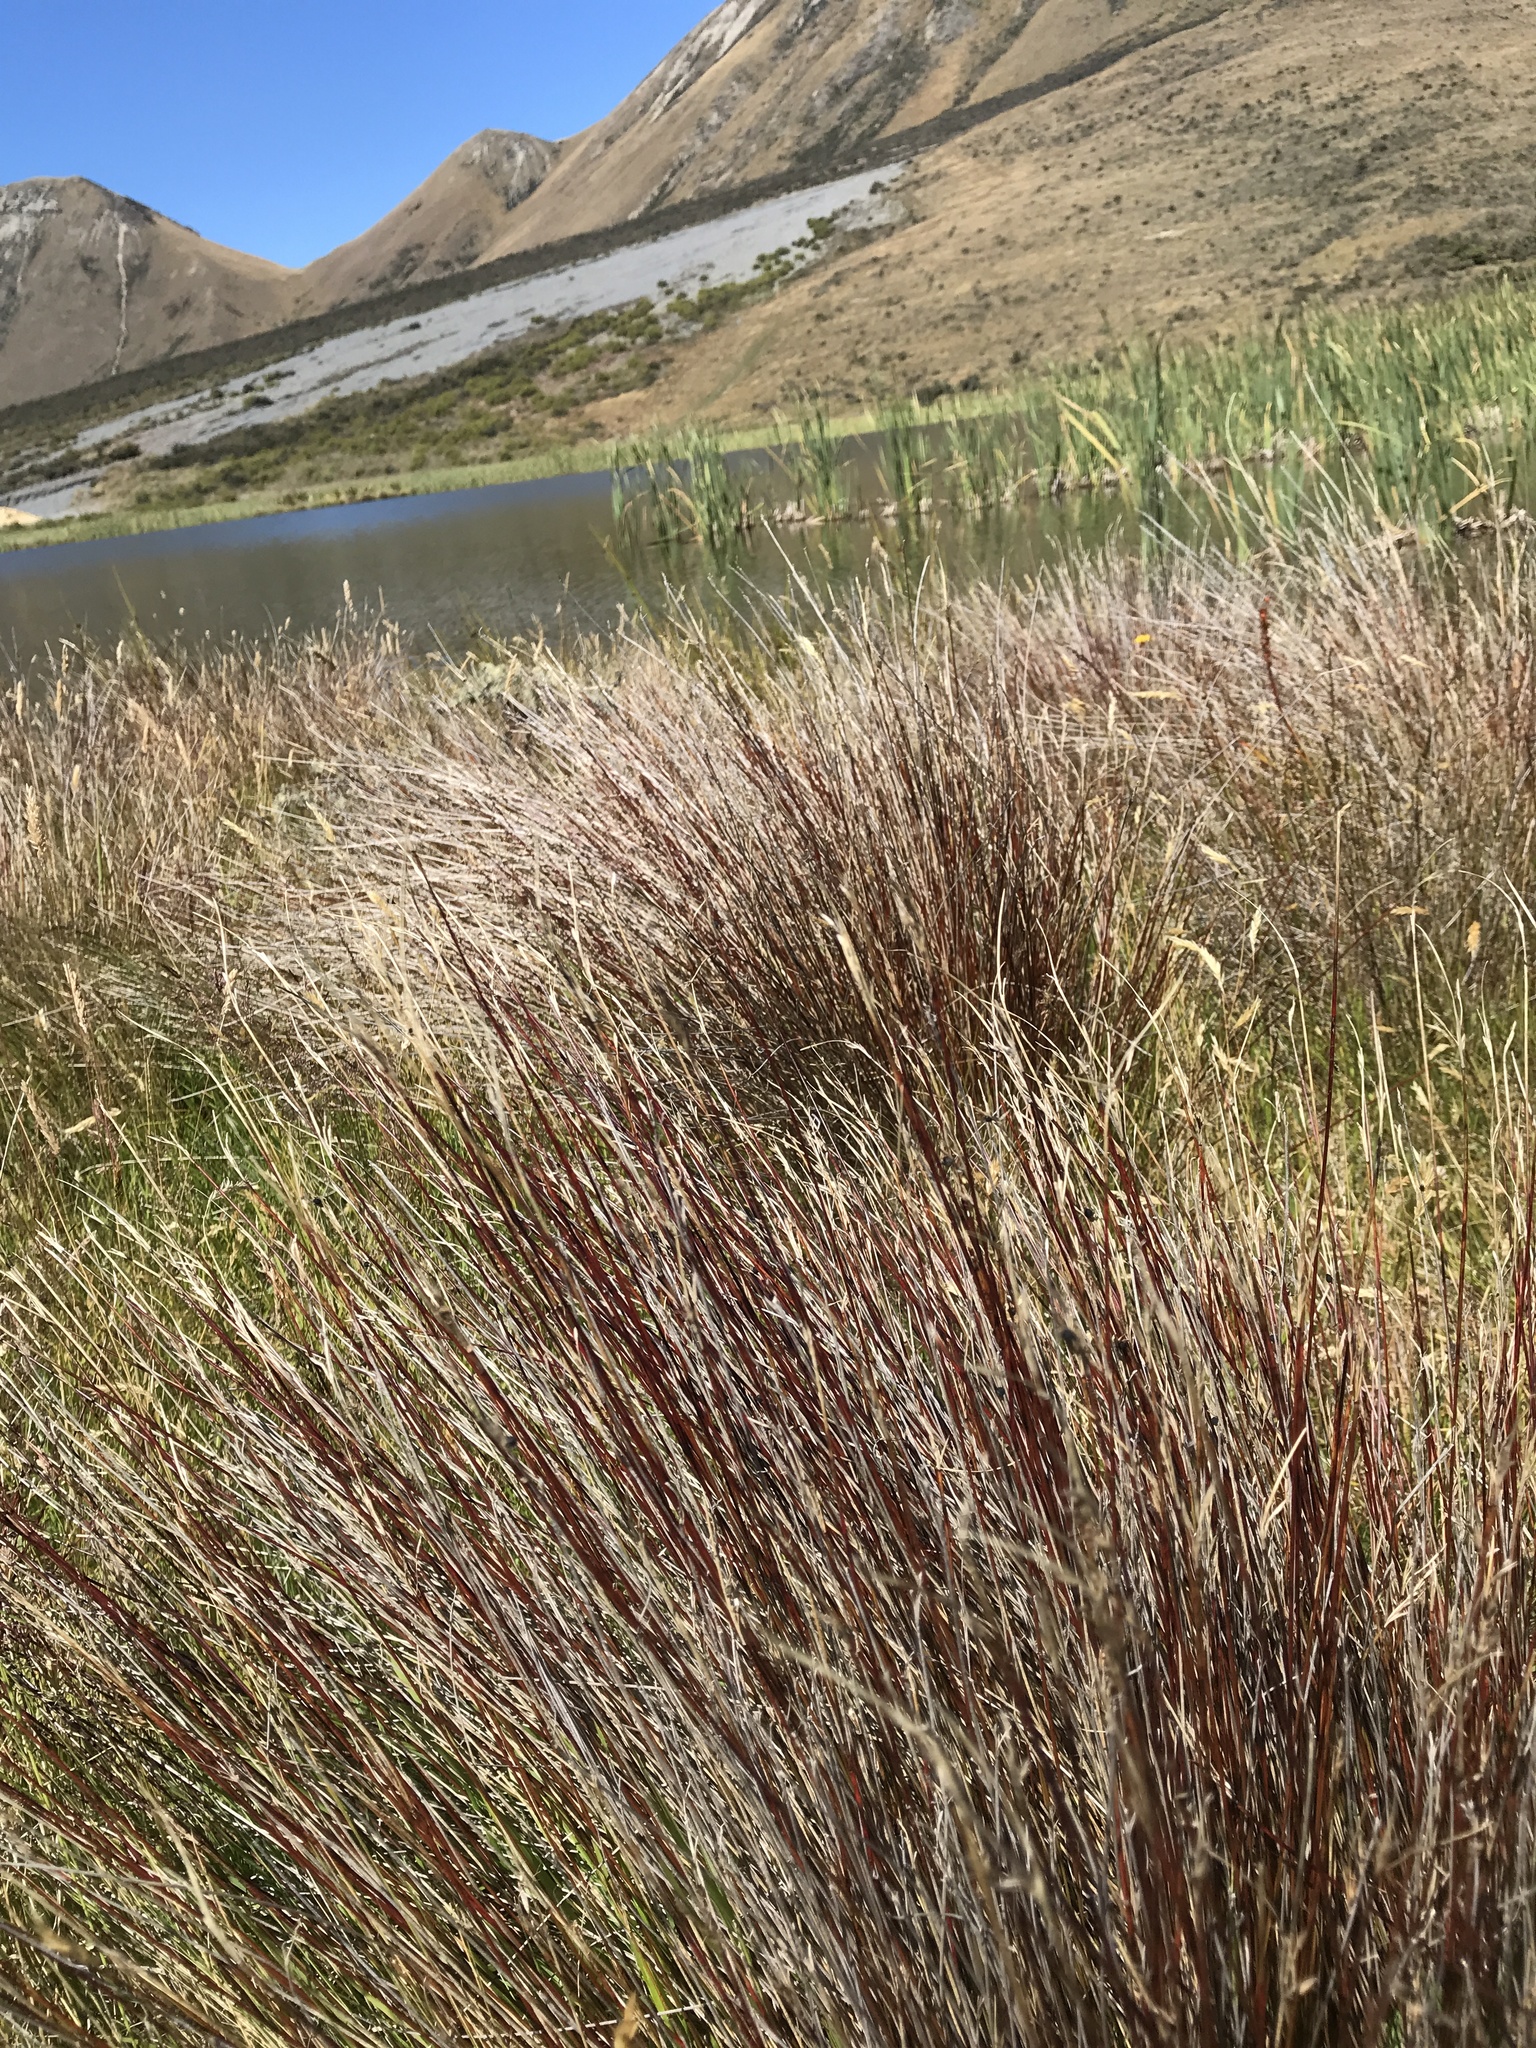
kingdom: Plantae
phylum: Tracheophyta
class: Liliopsida
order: Poales
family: Cyperaceae
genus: Schoenus
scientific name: Schoenus pauciflorus
